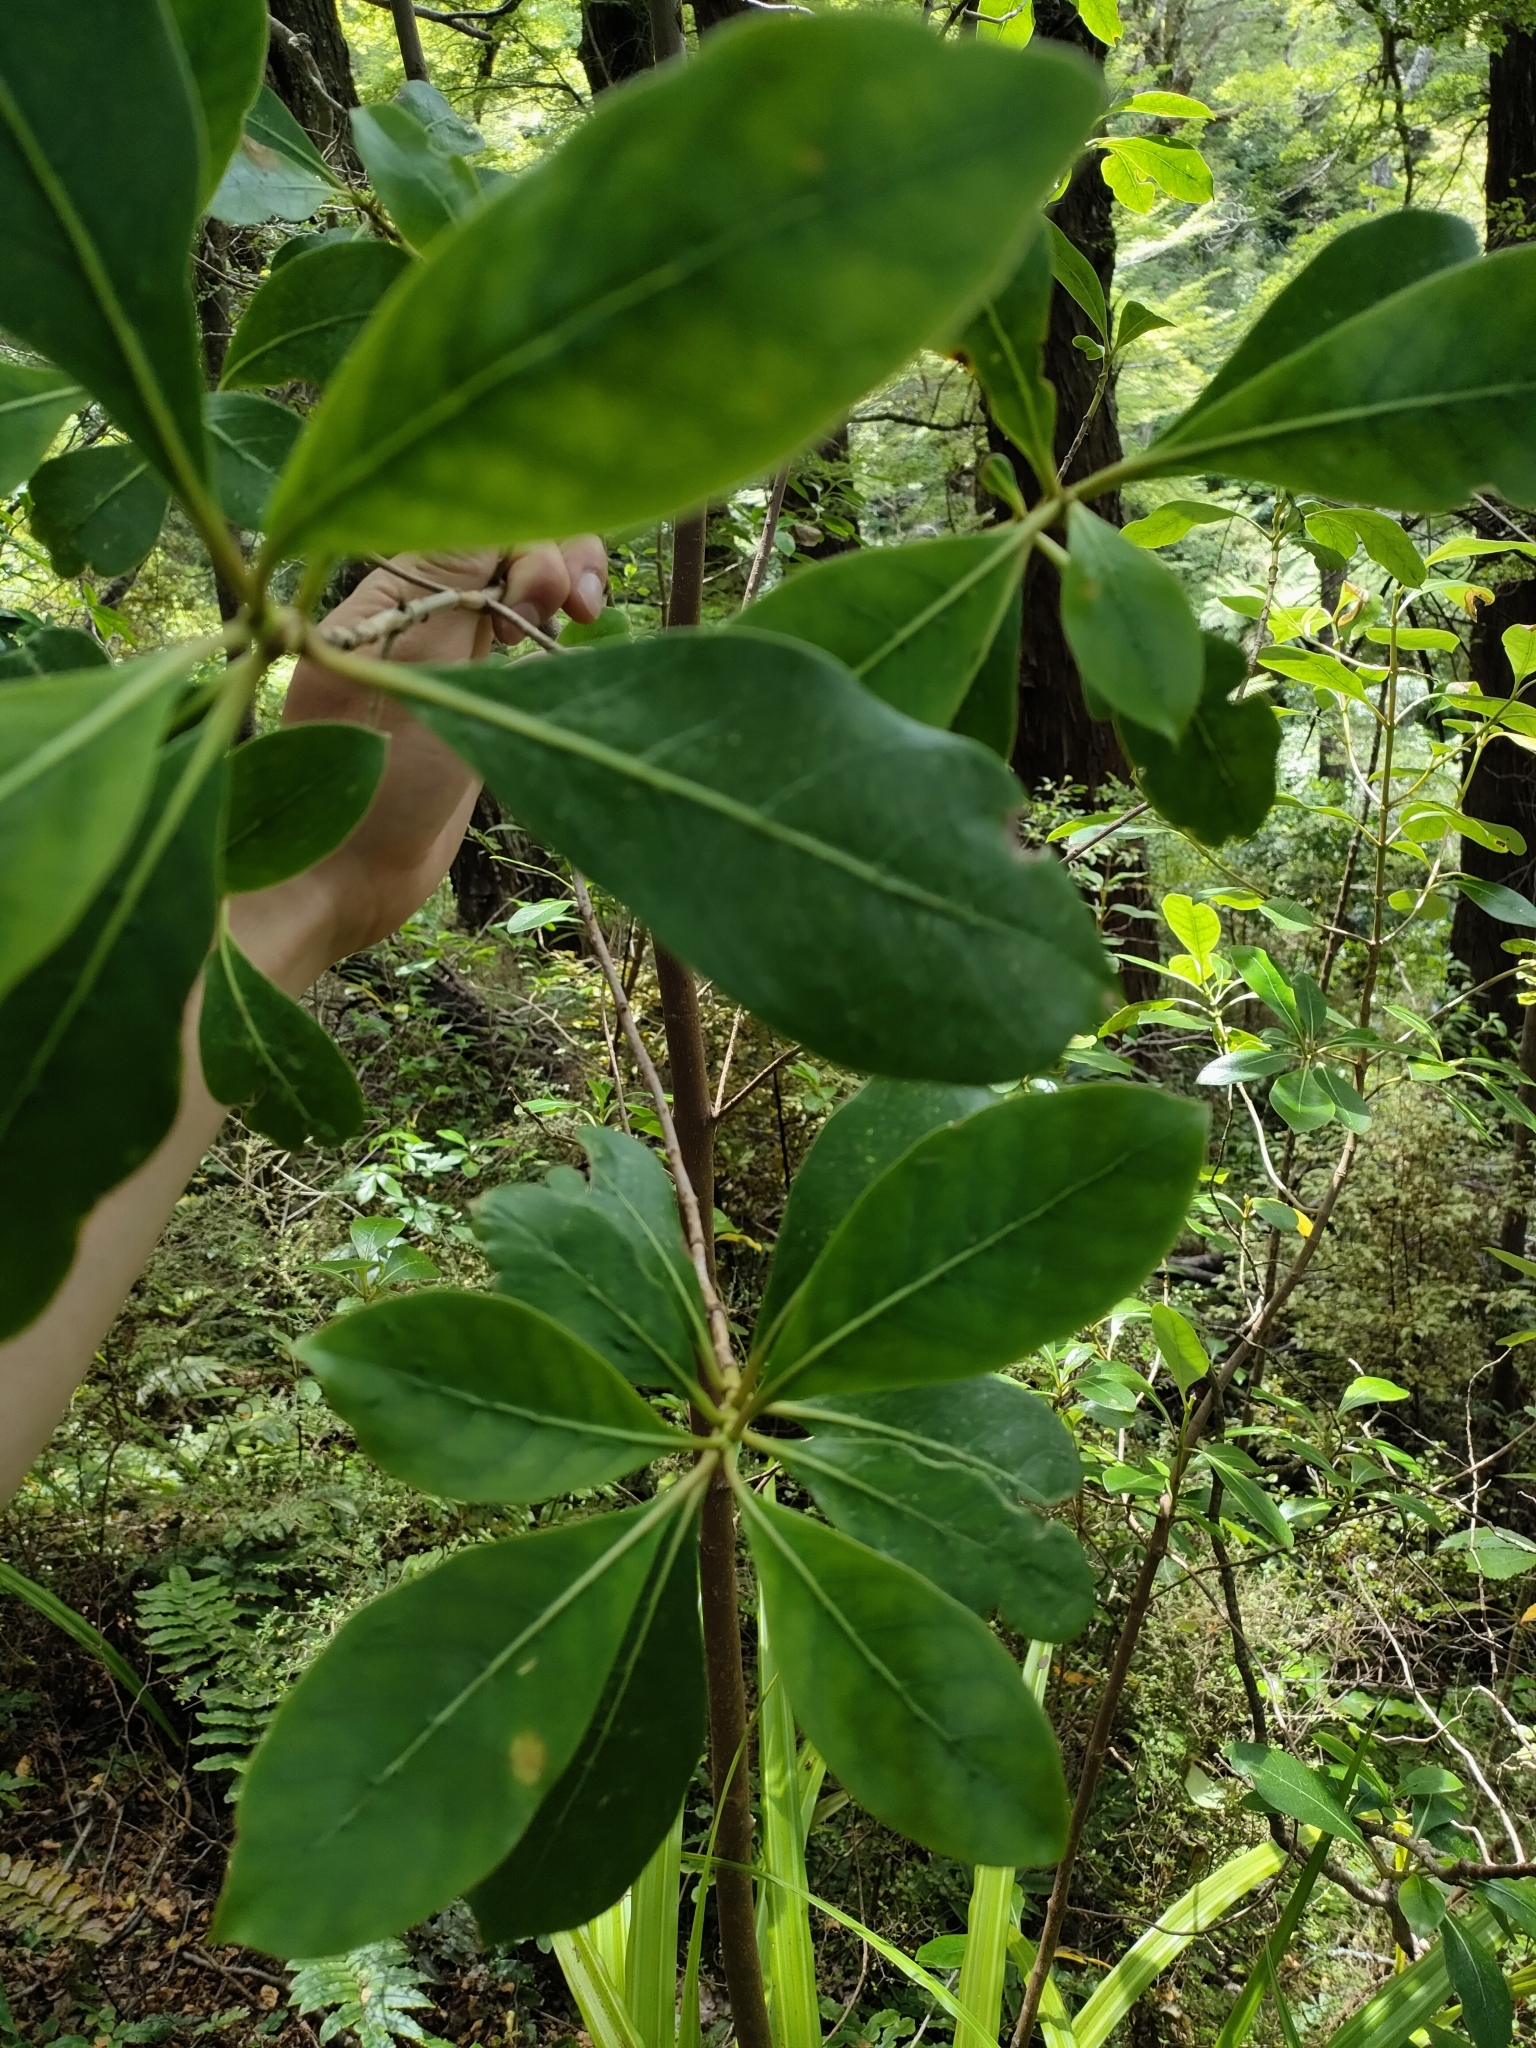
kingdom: Plantae
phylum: Tracheophyta
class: Magnoliopsida
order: Gentianales
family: Rubiaceae
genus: Coprosma
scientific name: Coprosma lucida
